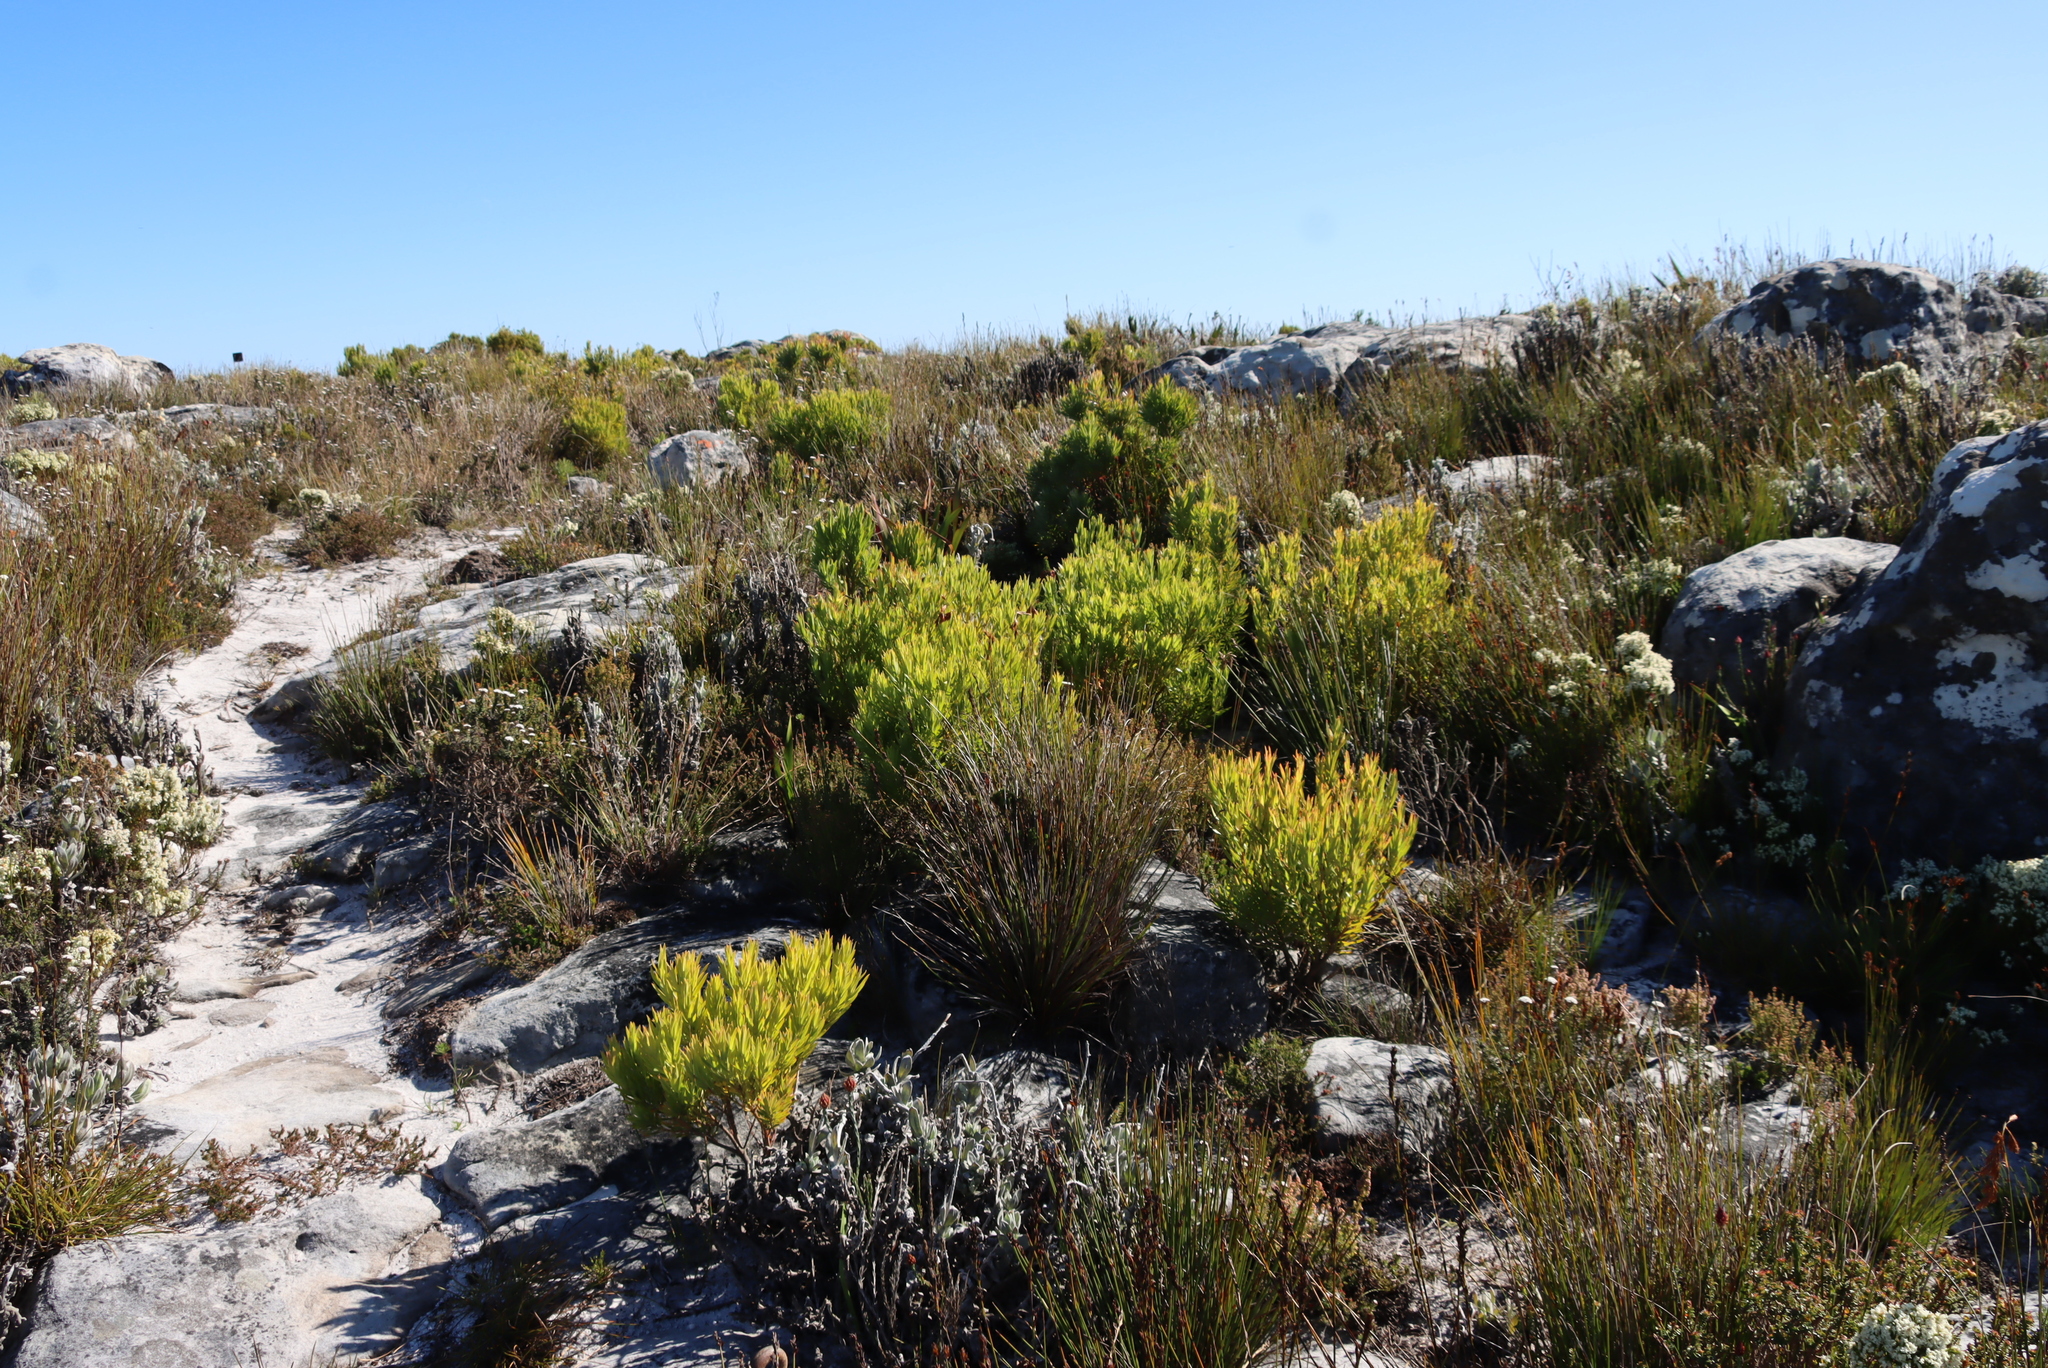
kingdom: Plantae
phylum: Tracheophyta
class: Magnoliopsida
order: Proteales
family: Proteaceae
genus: Leucadendron
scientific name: Leucadendron xanthoconus
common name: Sickle-leaf conebush
